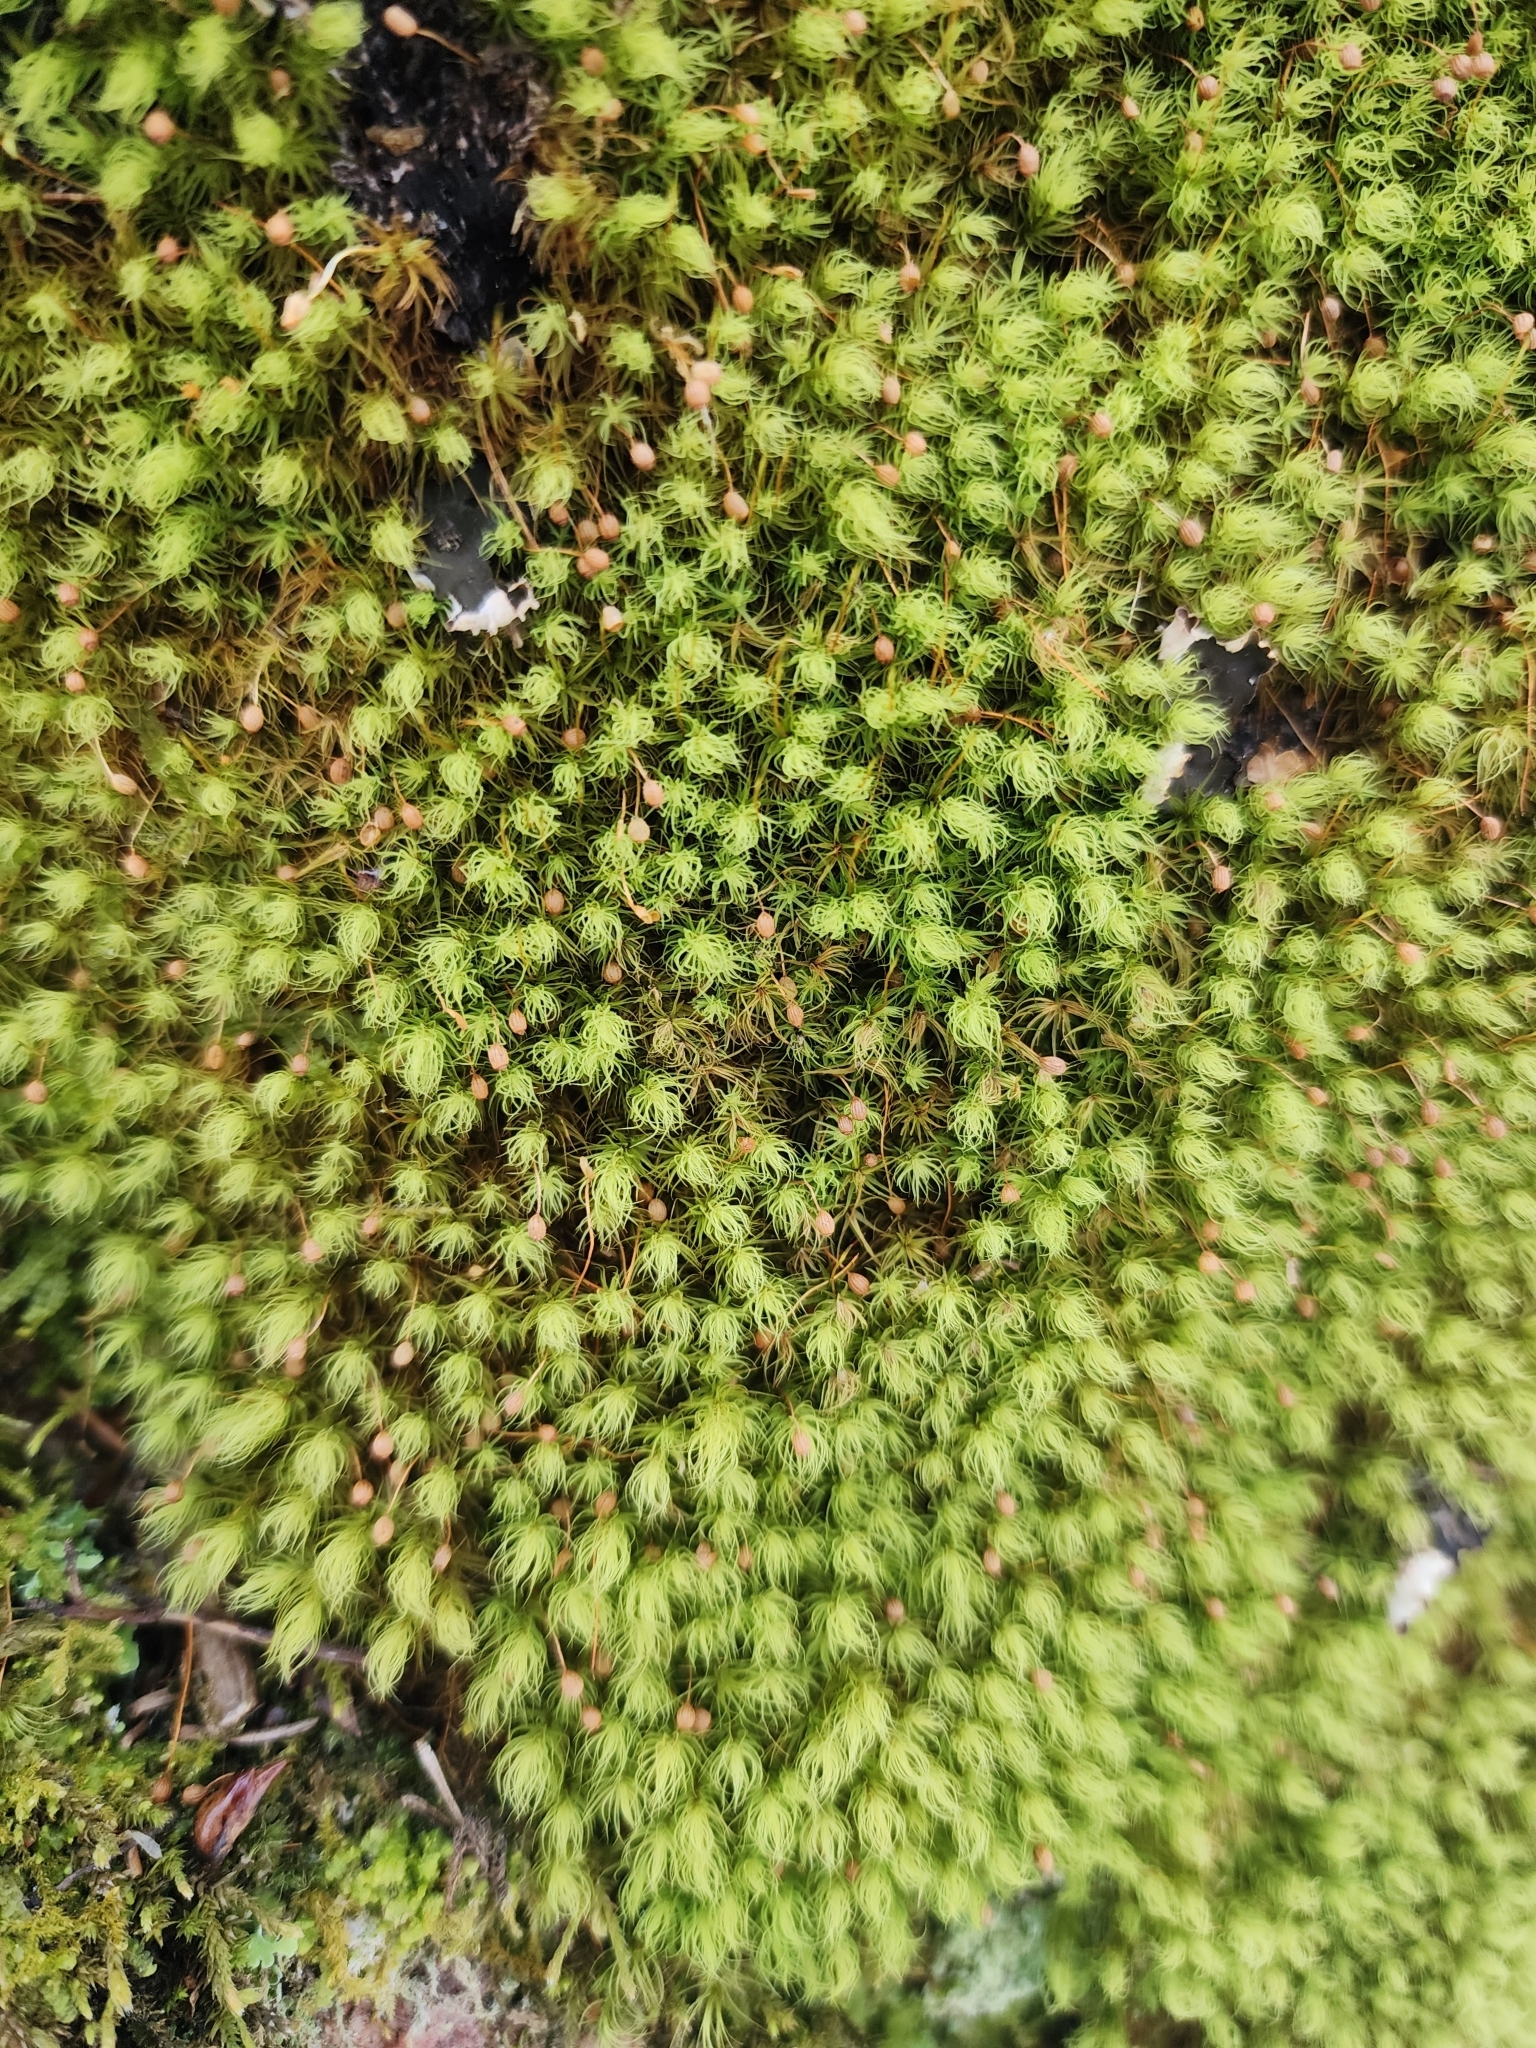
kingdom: Plantae
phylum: Bryophyta
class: Bryopsida
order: Bartramiales
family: Bartramiaceae
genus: Bartramia
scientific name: Bartramia ithyphylla
